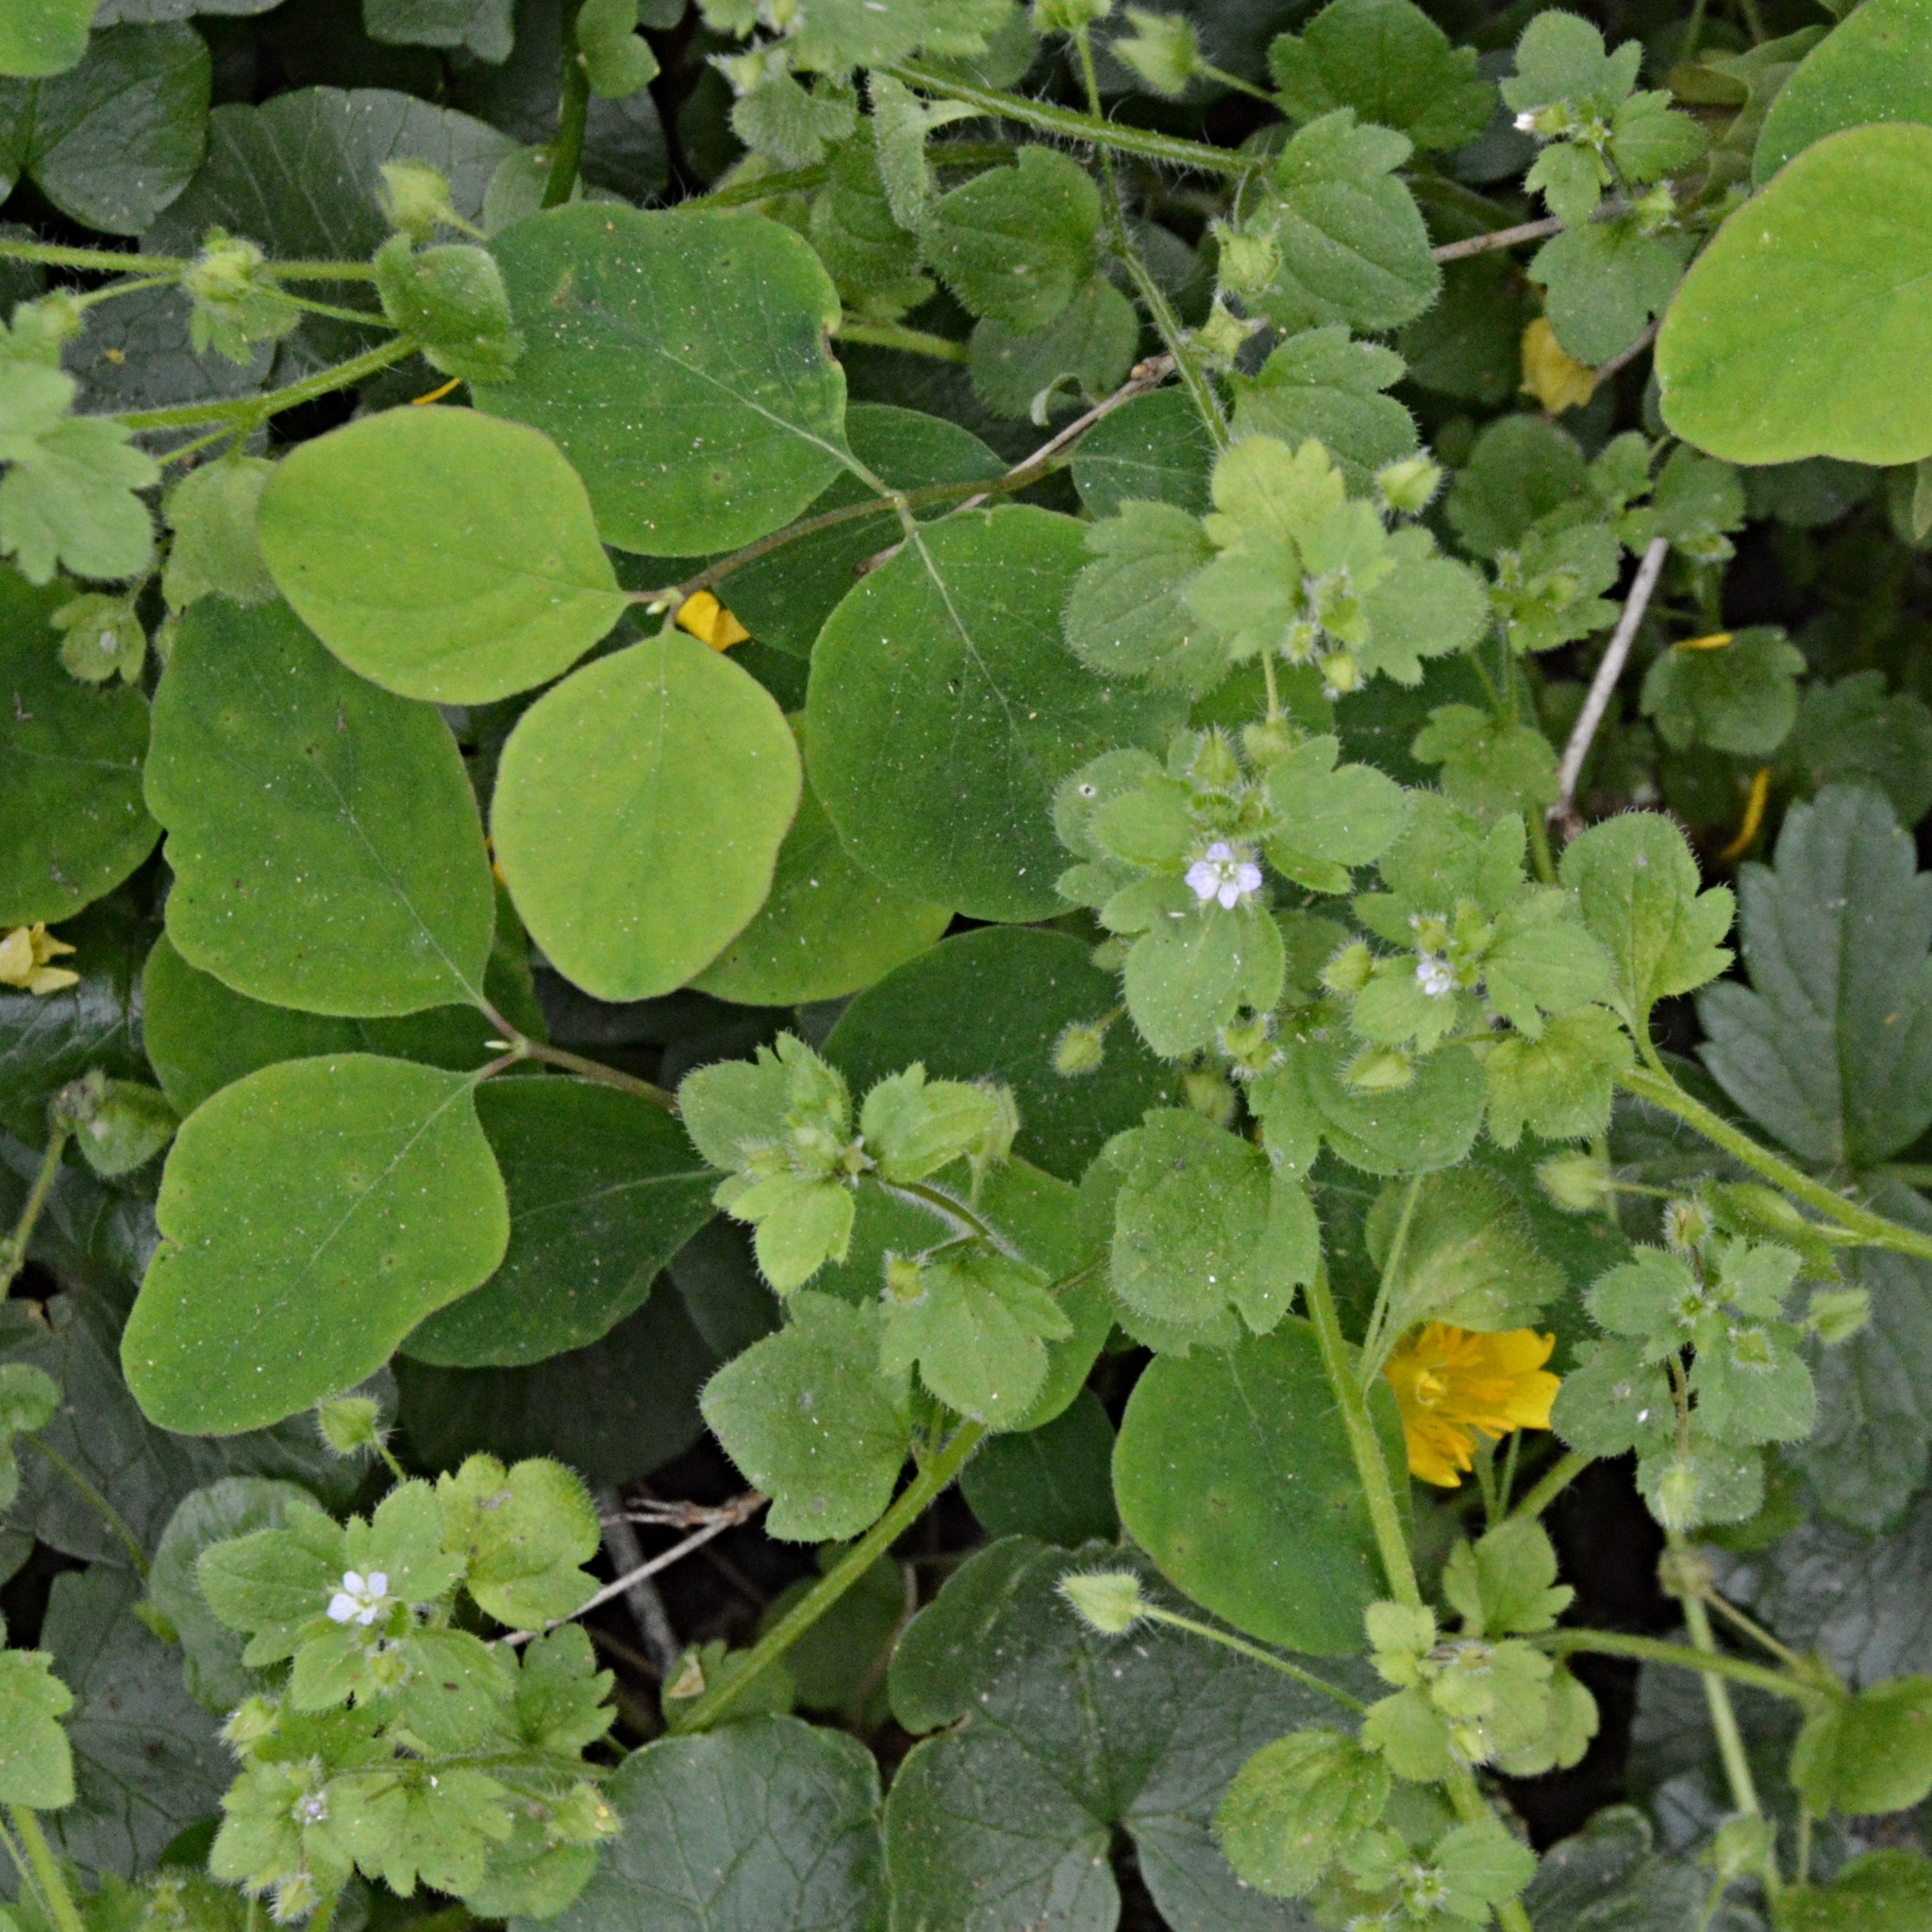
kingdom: Plantae
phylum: Tracheophyta
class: Magnoliopsida
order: Lamiales
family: Plantaginaceae
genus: Veronica
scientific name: Veronica sublobata
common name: False ivy-leaved speedwell
